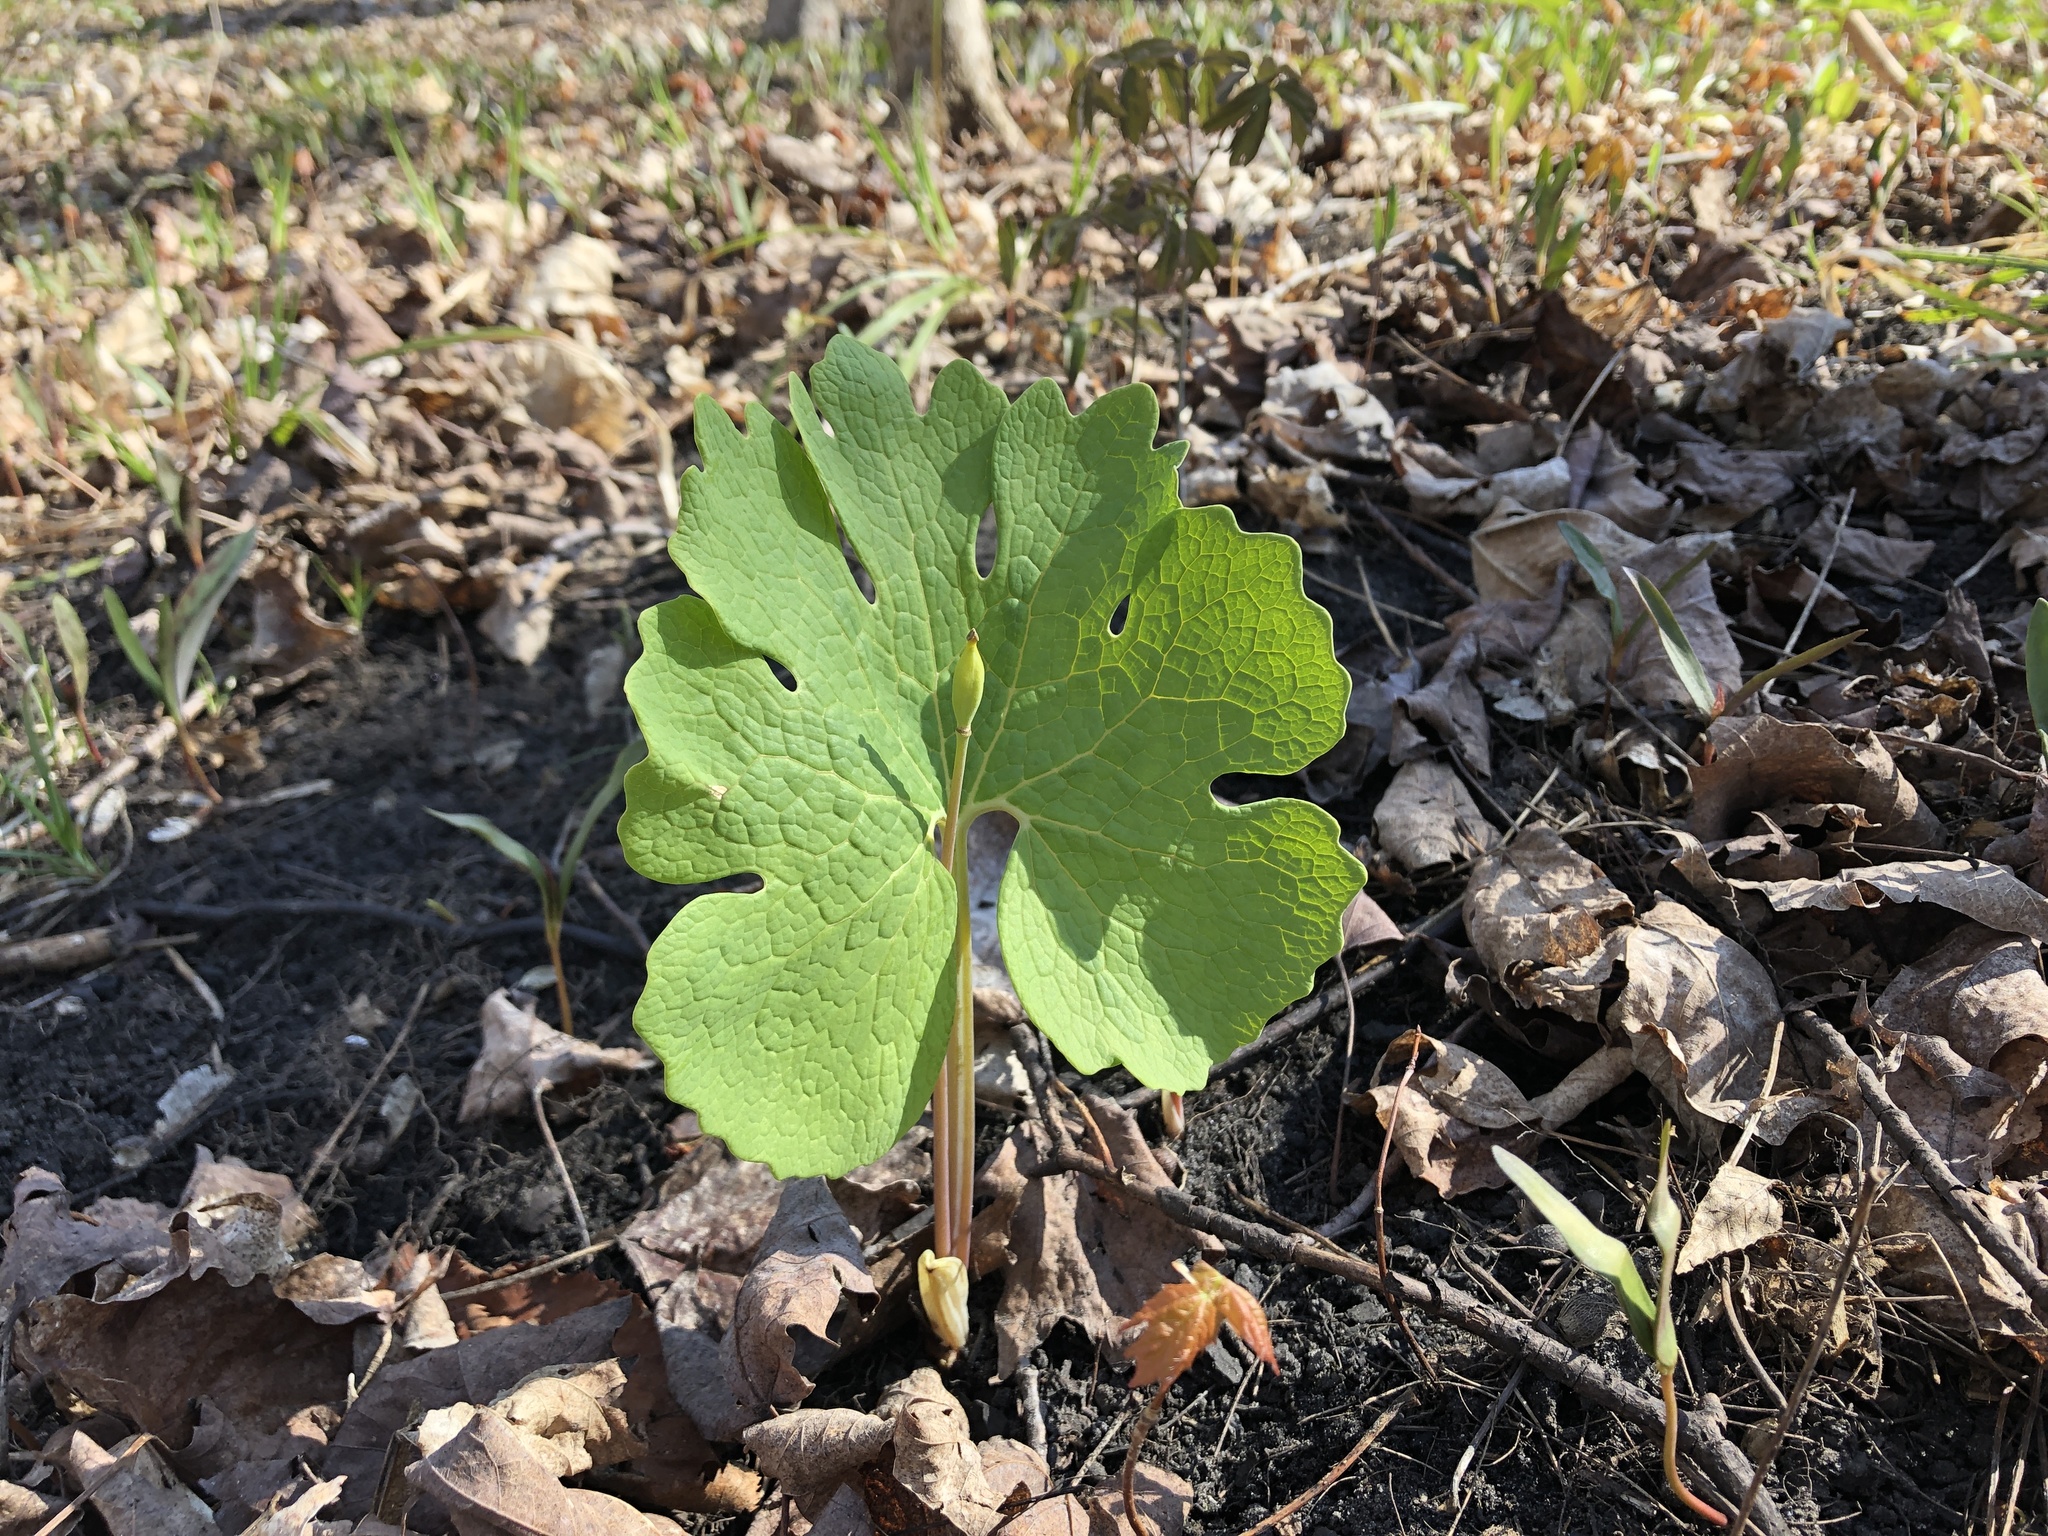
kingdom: Plantae
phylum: Tracheophyta
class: Magnoliopsida
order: Ranunculales
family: Papaveraceae
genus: Sanguinaria
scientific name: Sanguinaria canadensis
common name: Bloodroot
